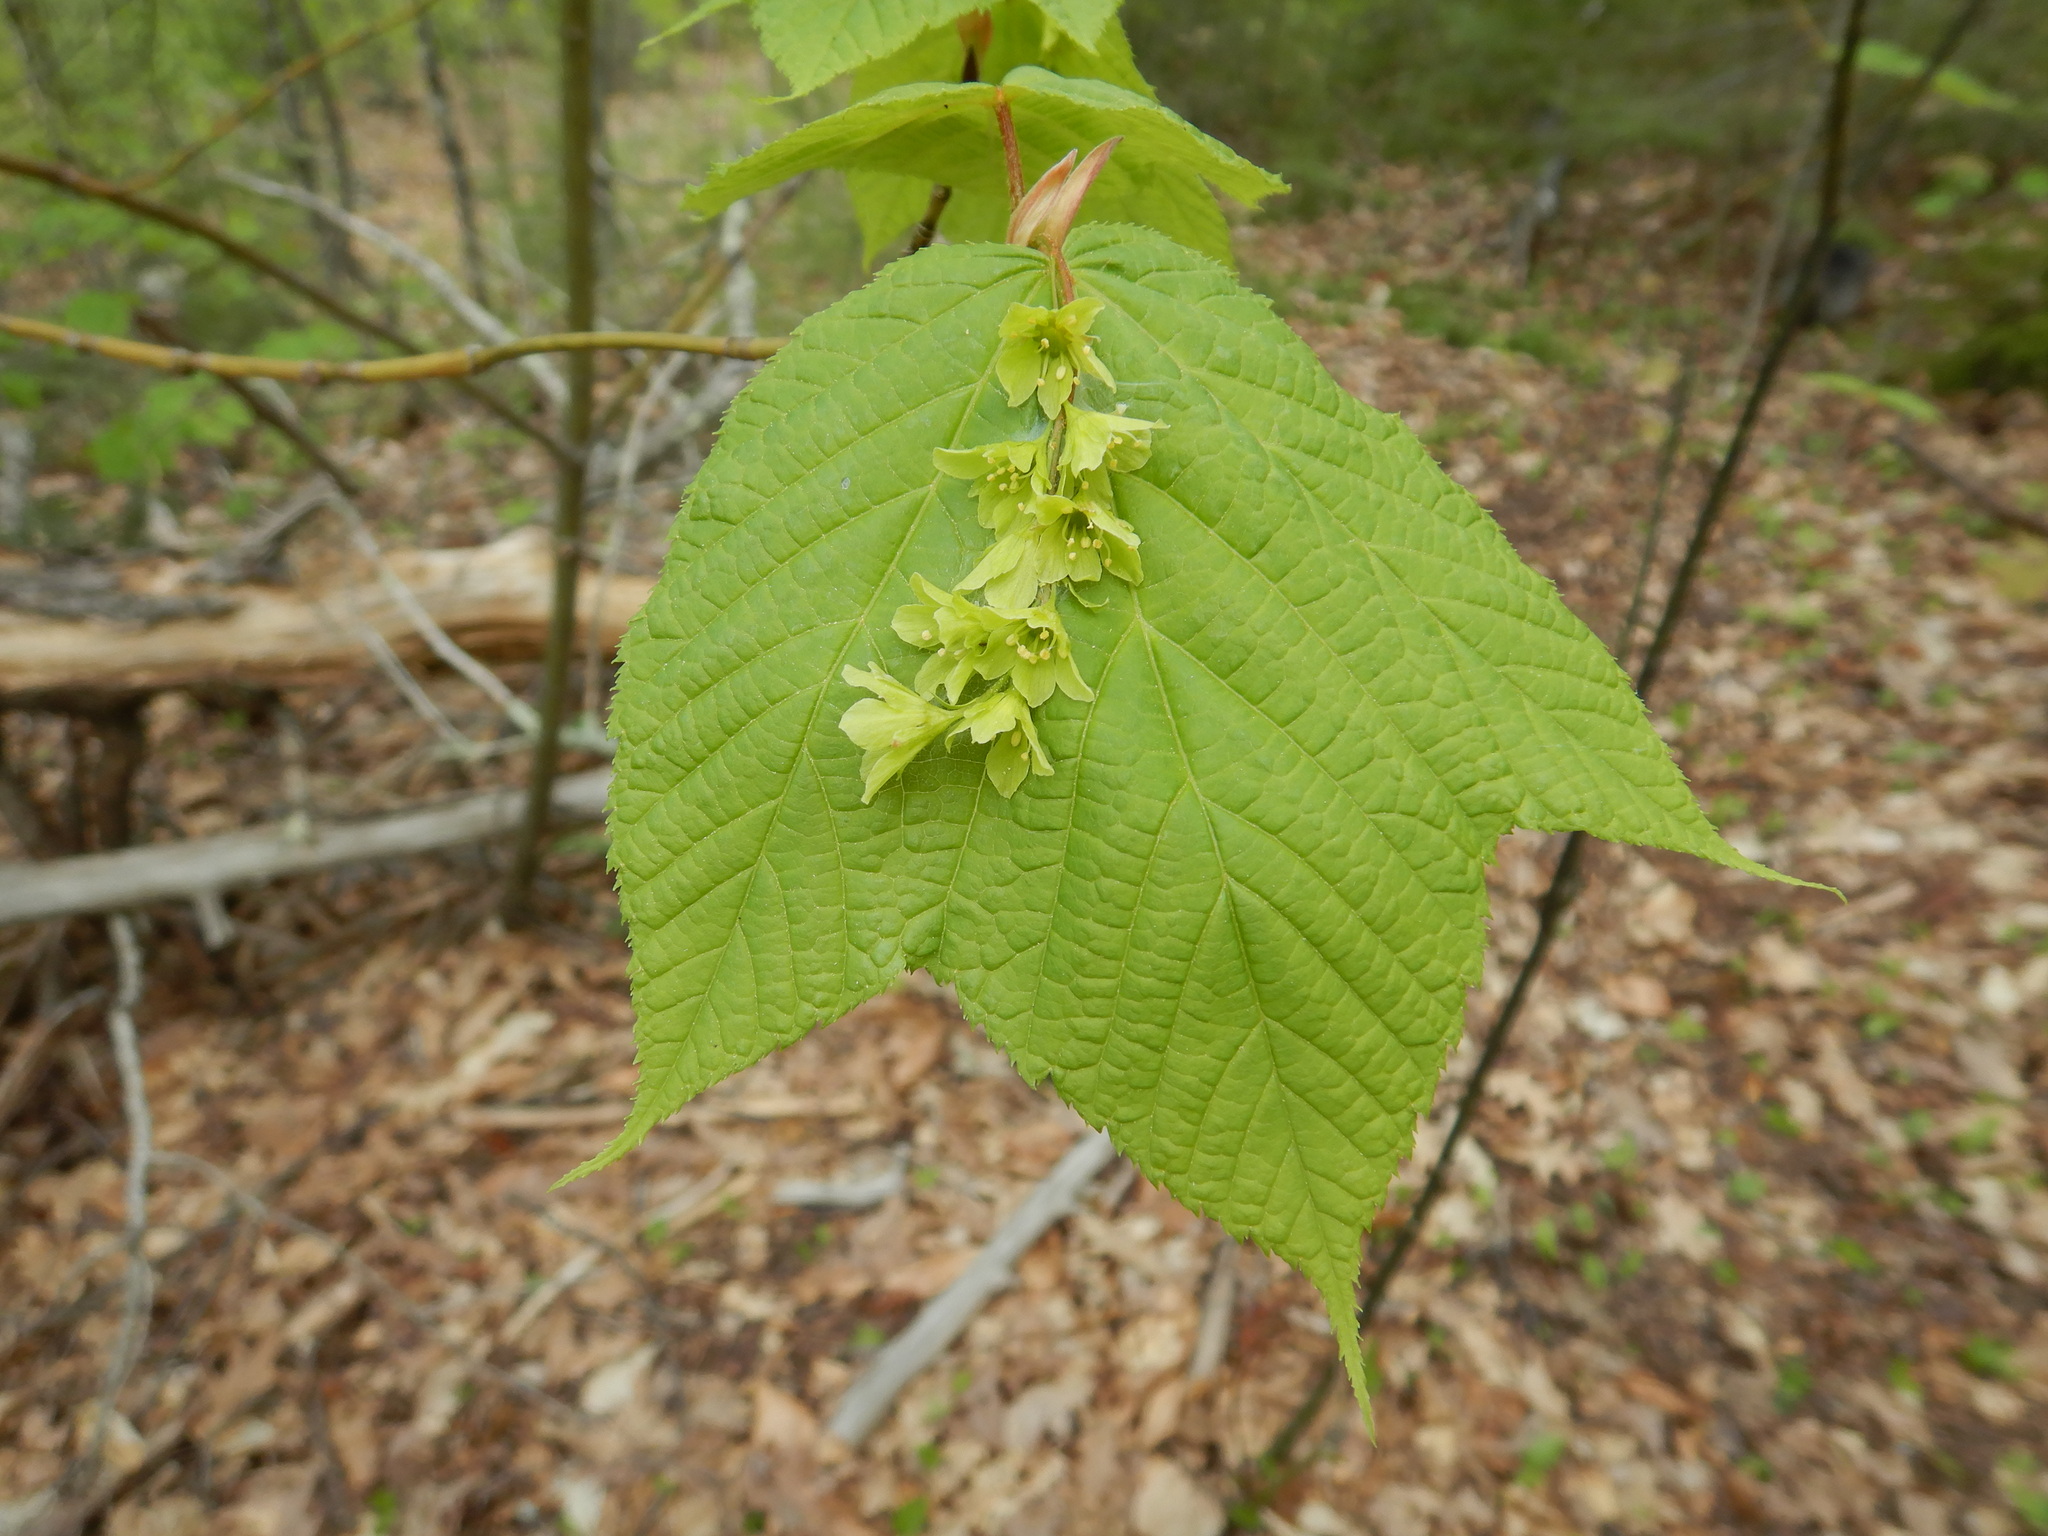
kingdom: Plantae
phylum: Tracheophyta
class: Magnoliopsida
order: Sapindales
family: Sapindaceae
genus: Acer
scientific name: Acer pensylvanicum
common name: Moosewood
